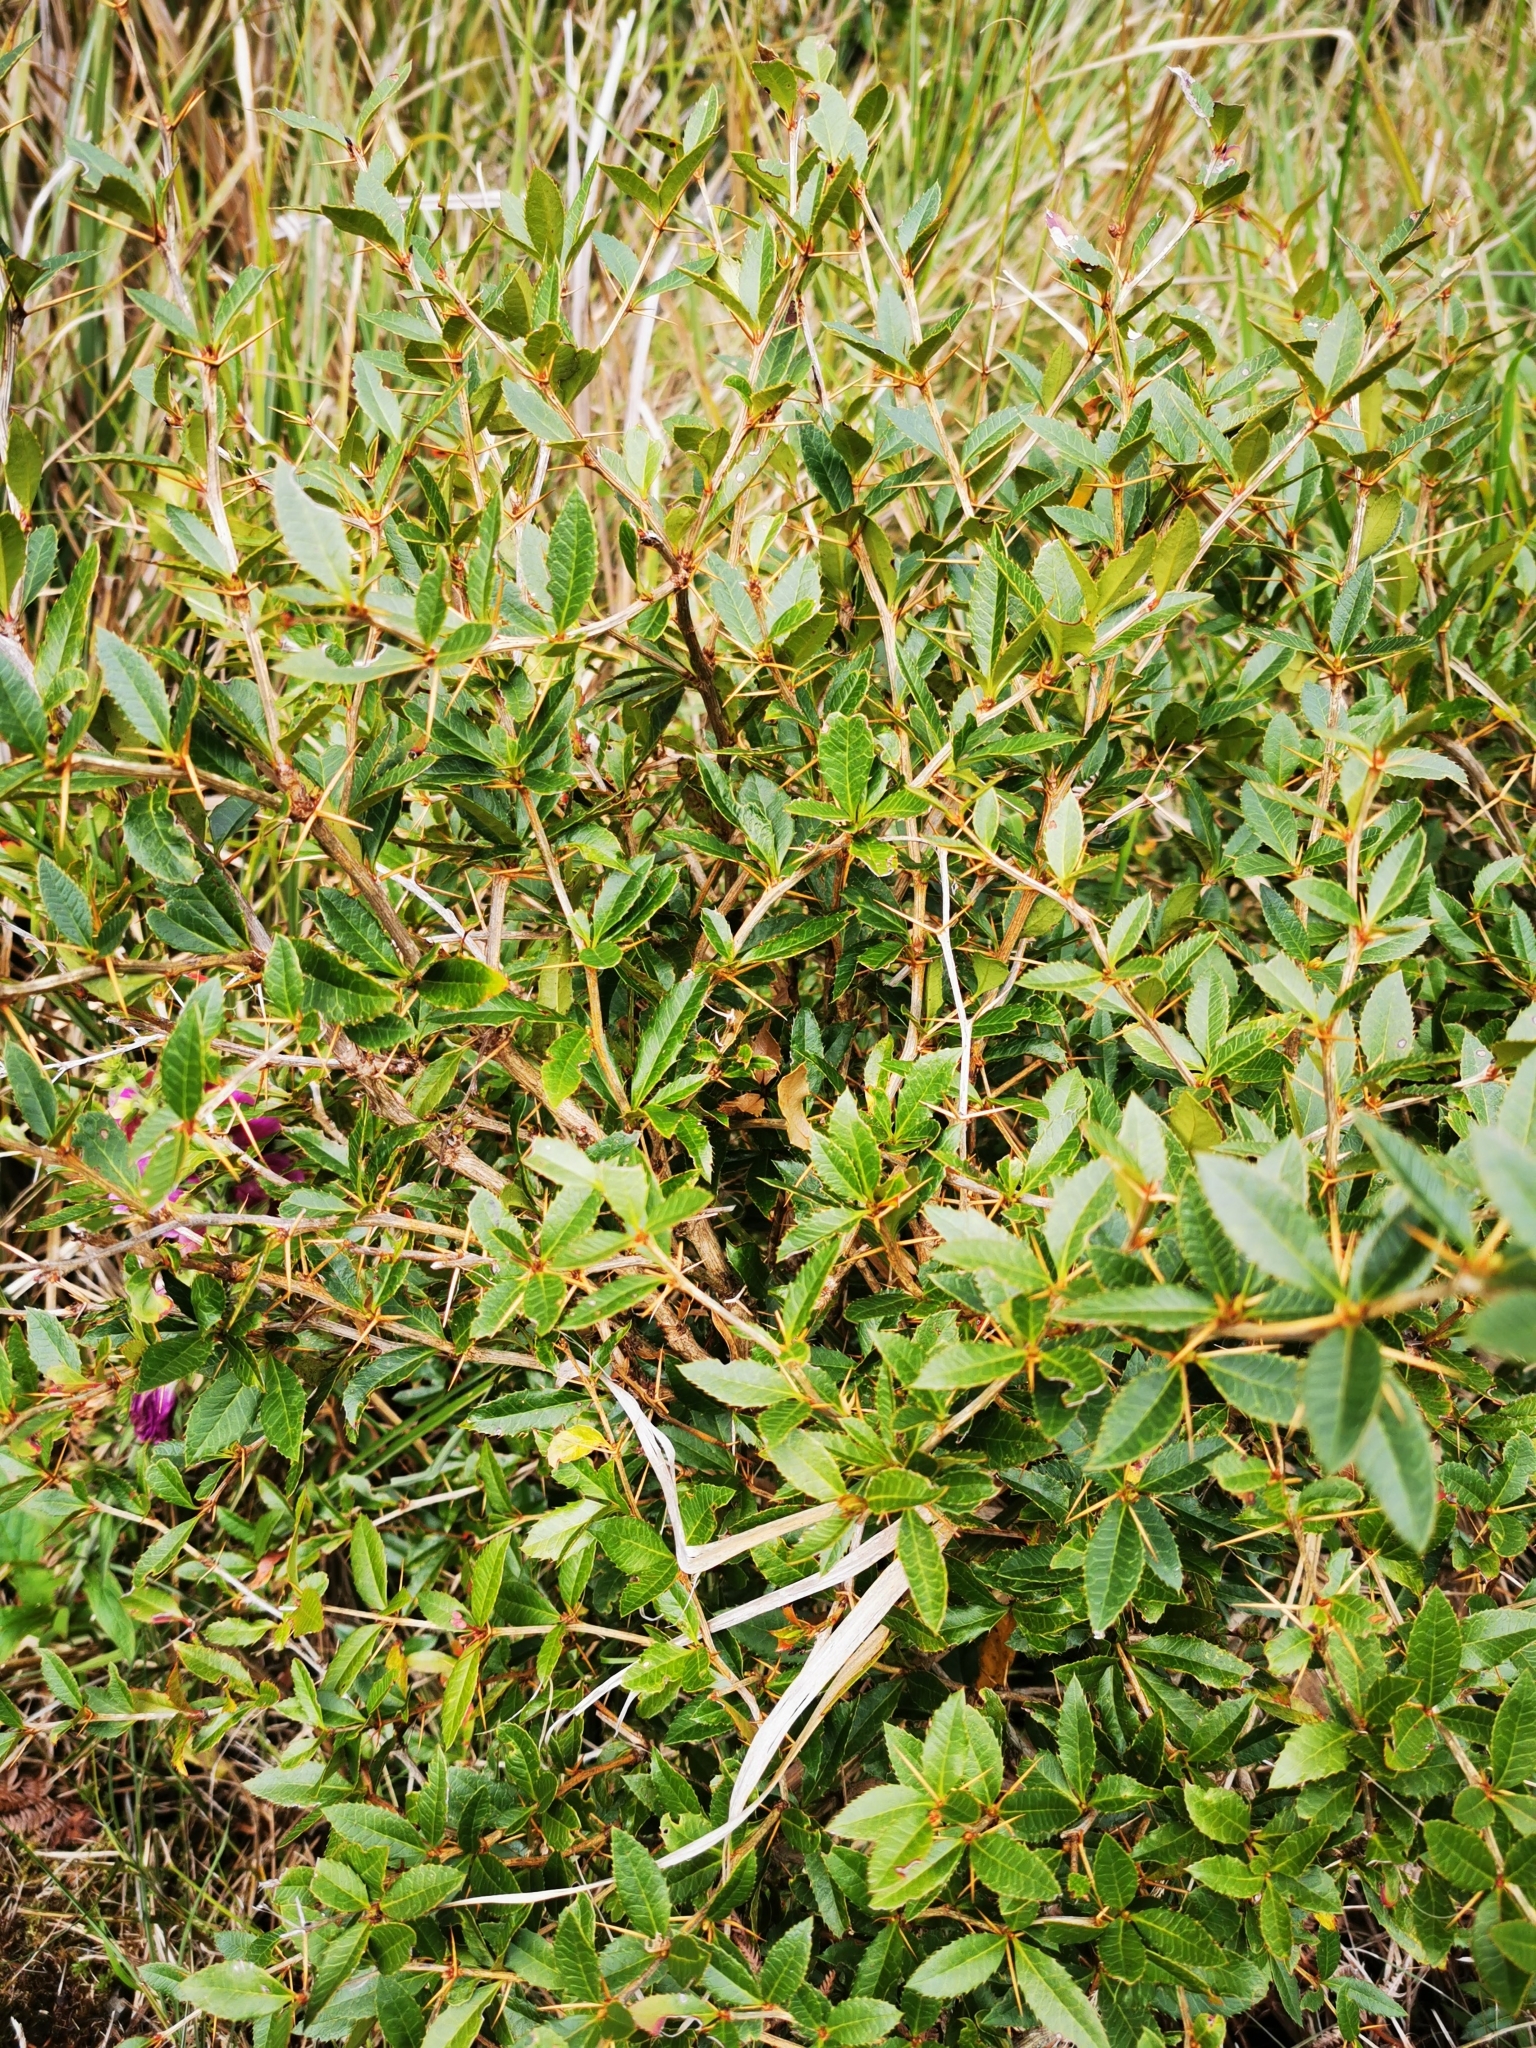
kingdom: Plantae
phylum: Tracheophyta
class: Magnoliopsida
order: Ranunculales
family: Berberidaceae
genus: Berberis
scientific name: Berberis kawakamii
